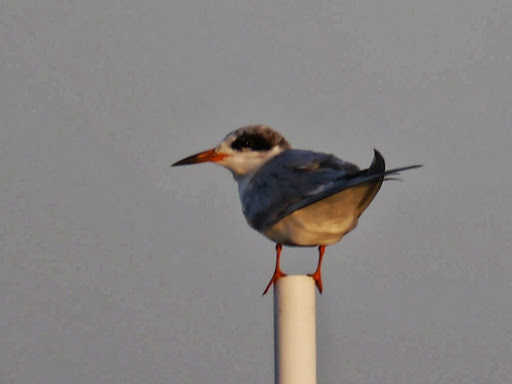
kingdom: Animalia
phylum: Chordata
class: Aves
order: Charadriiformes
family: Laridae
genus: Sterna
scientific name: Sterna forsteri
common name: Forster's tern
